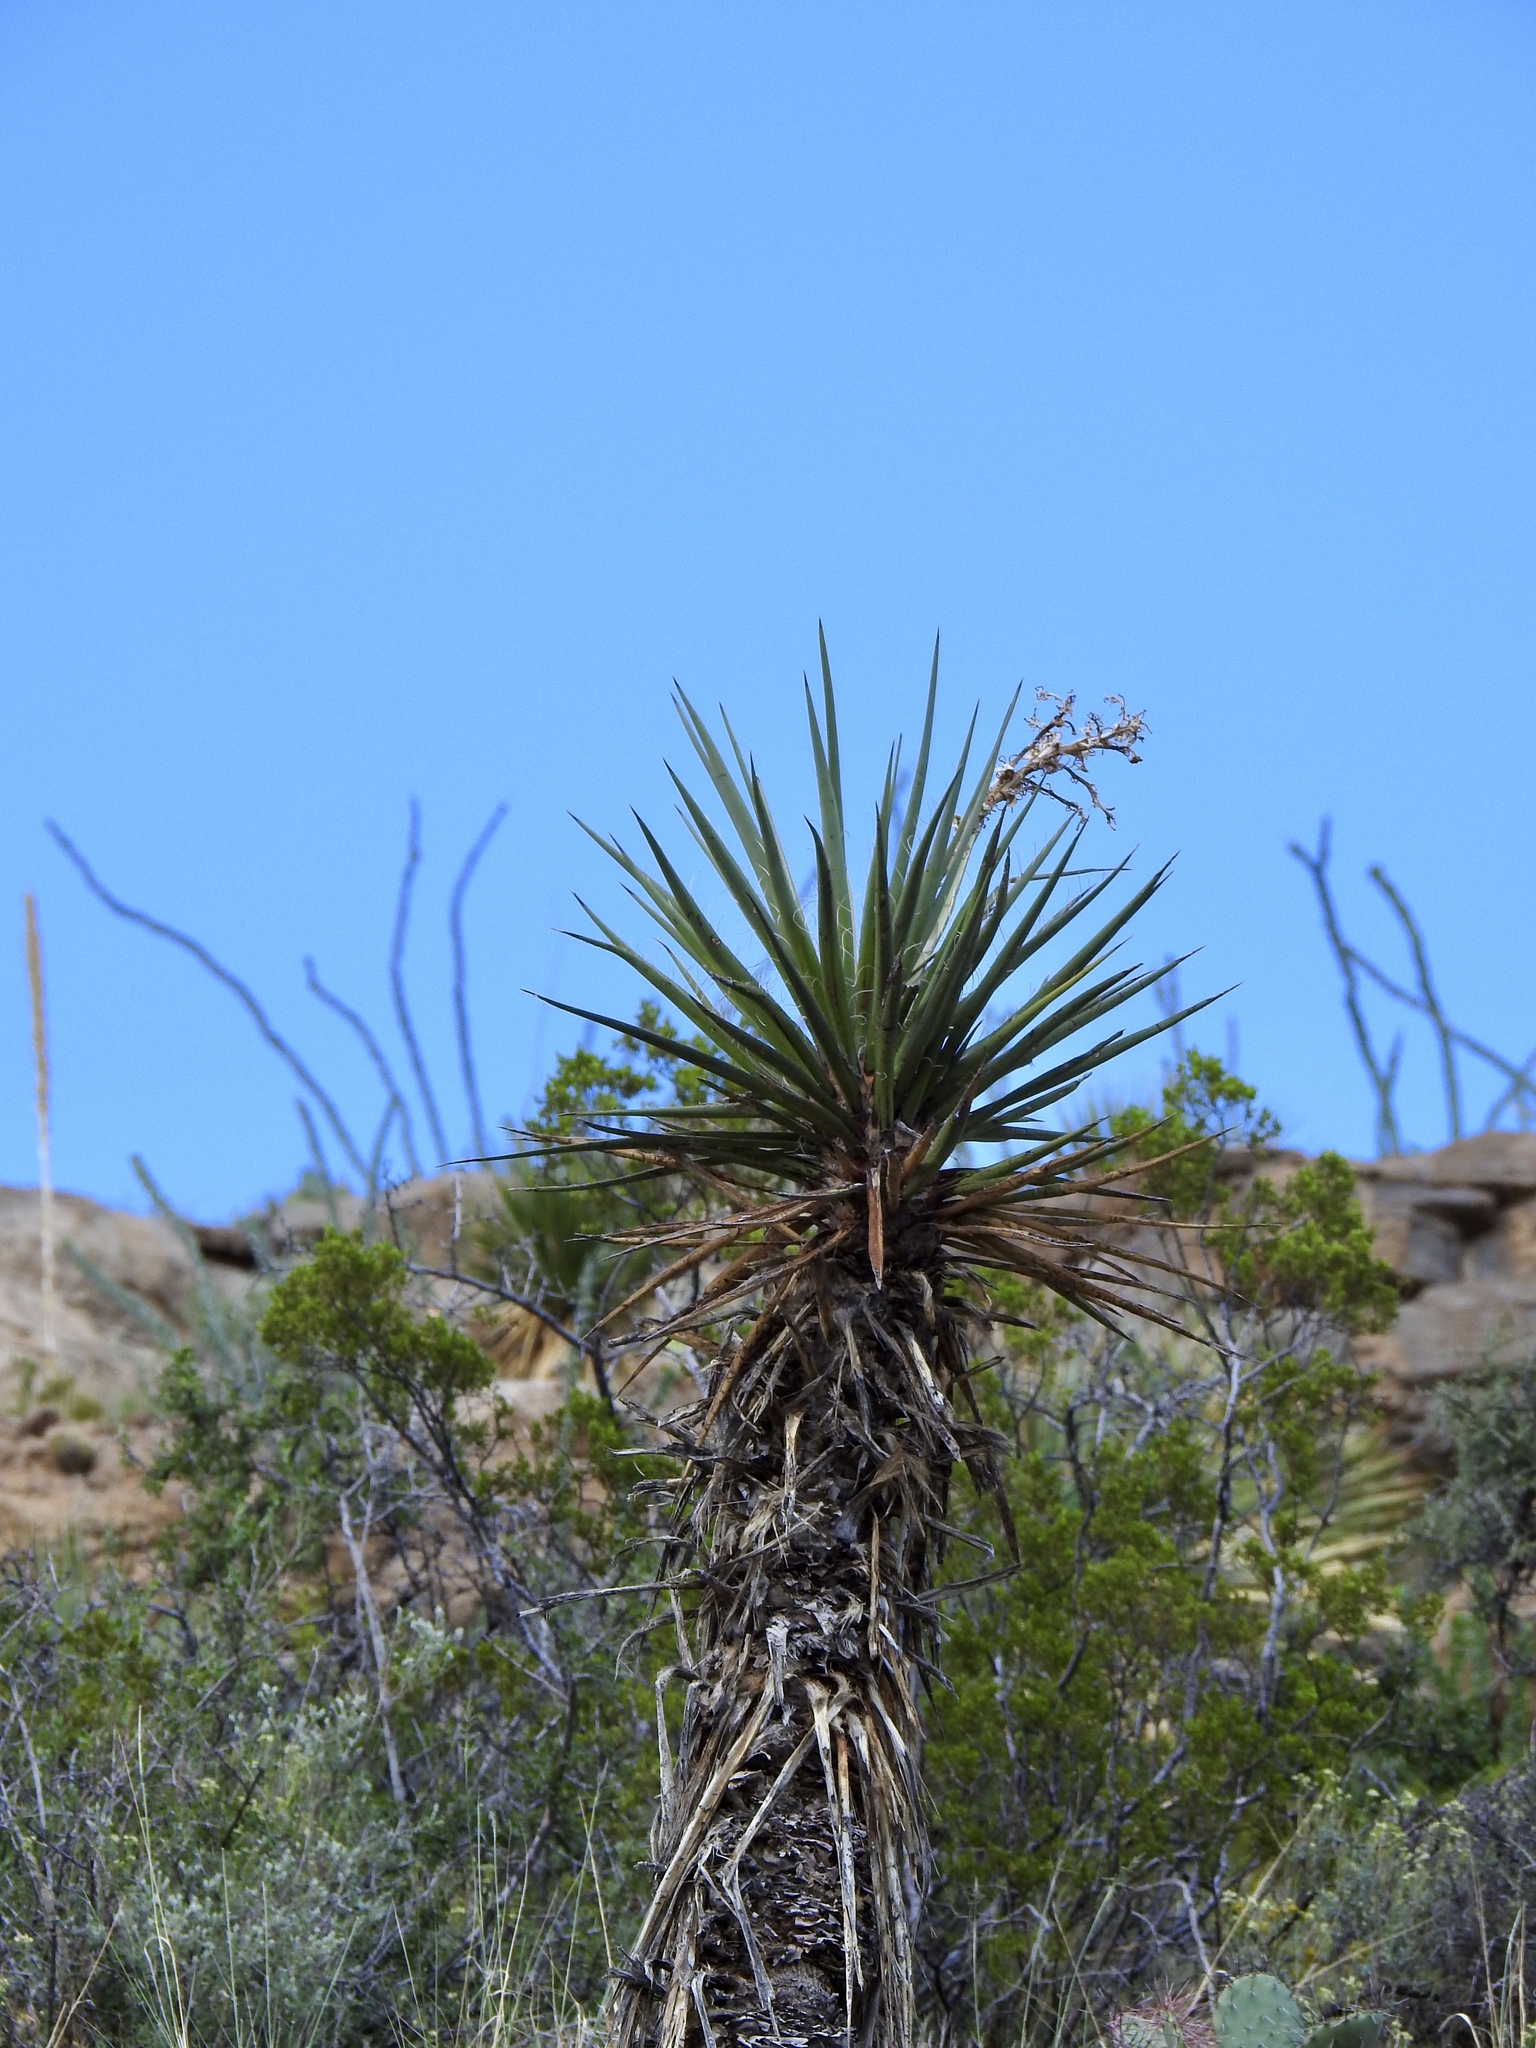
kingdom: Plantae
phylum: Tracheophyta
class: Liliopsida
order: Asparagales
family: Asparagaceae
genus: Yucca
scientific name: Yucca treculiana
